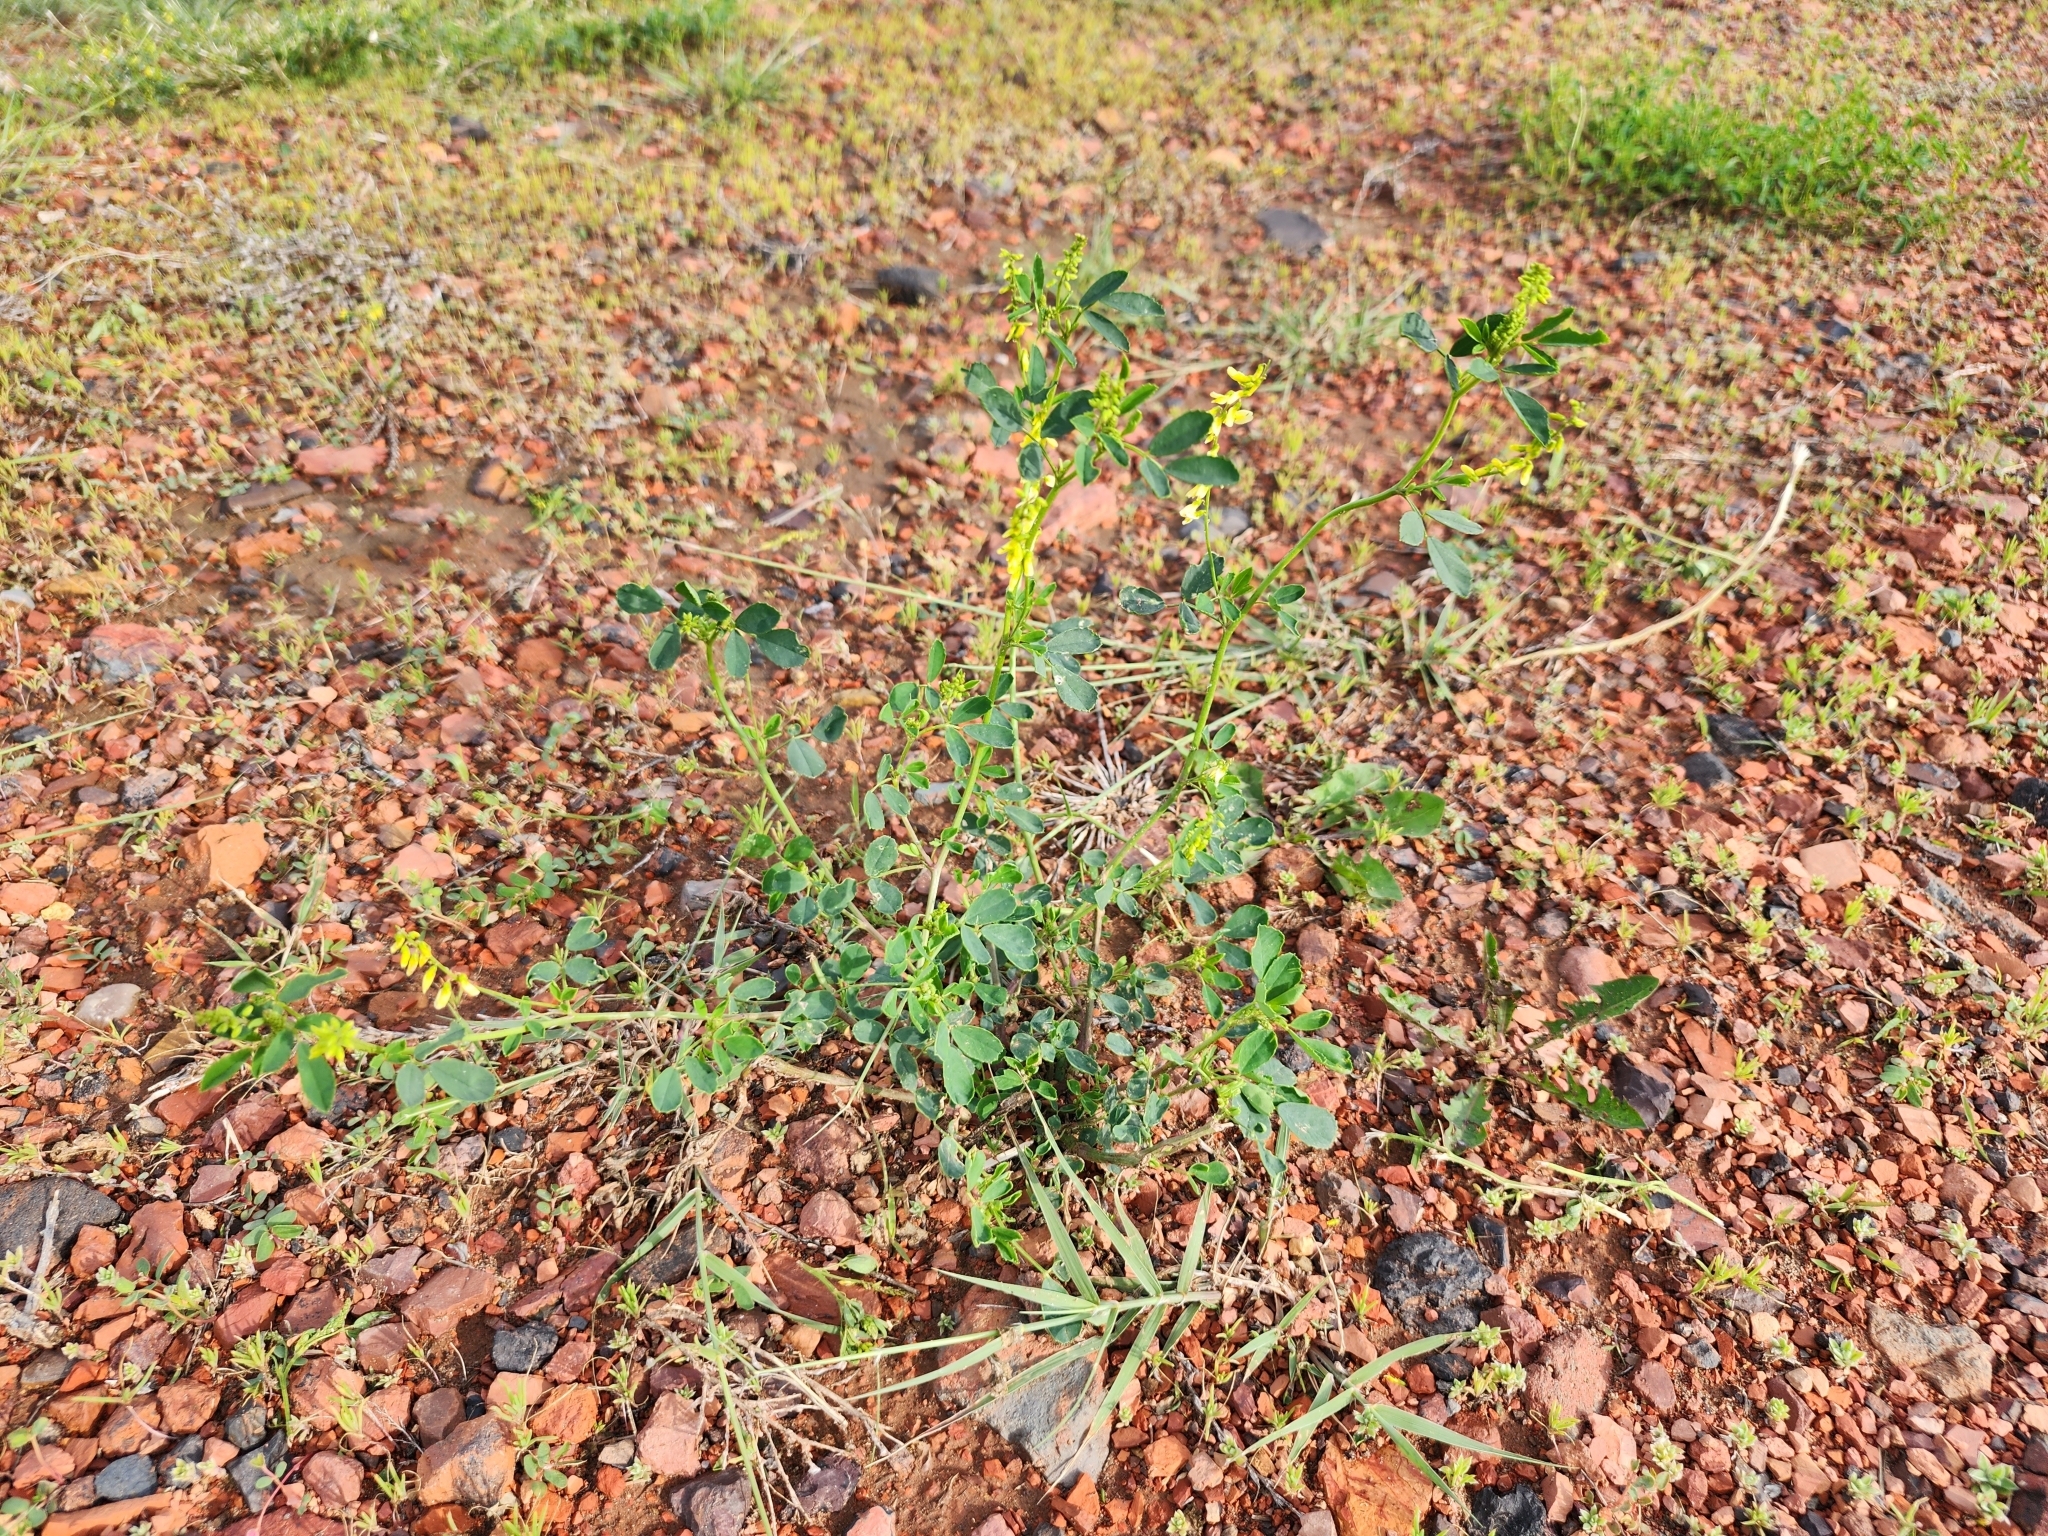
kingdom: Plantae
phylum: Tracheophyta
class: Magnoliopsida
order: Fabales
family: Fabaceae
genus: Melilotus
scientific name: Melilotus officinalis
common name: Sweetclover
